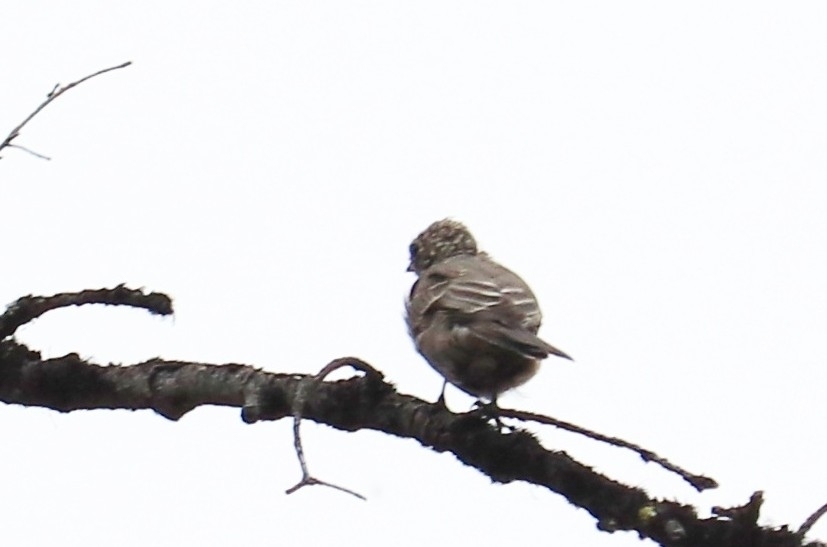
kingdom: Animalia
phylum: Chordata
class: Aves
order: Passeriformes
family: Turdidae
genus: Myadestes
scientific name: Myadestes townsendi
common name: Townsend's solitaire
